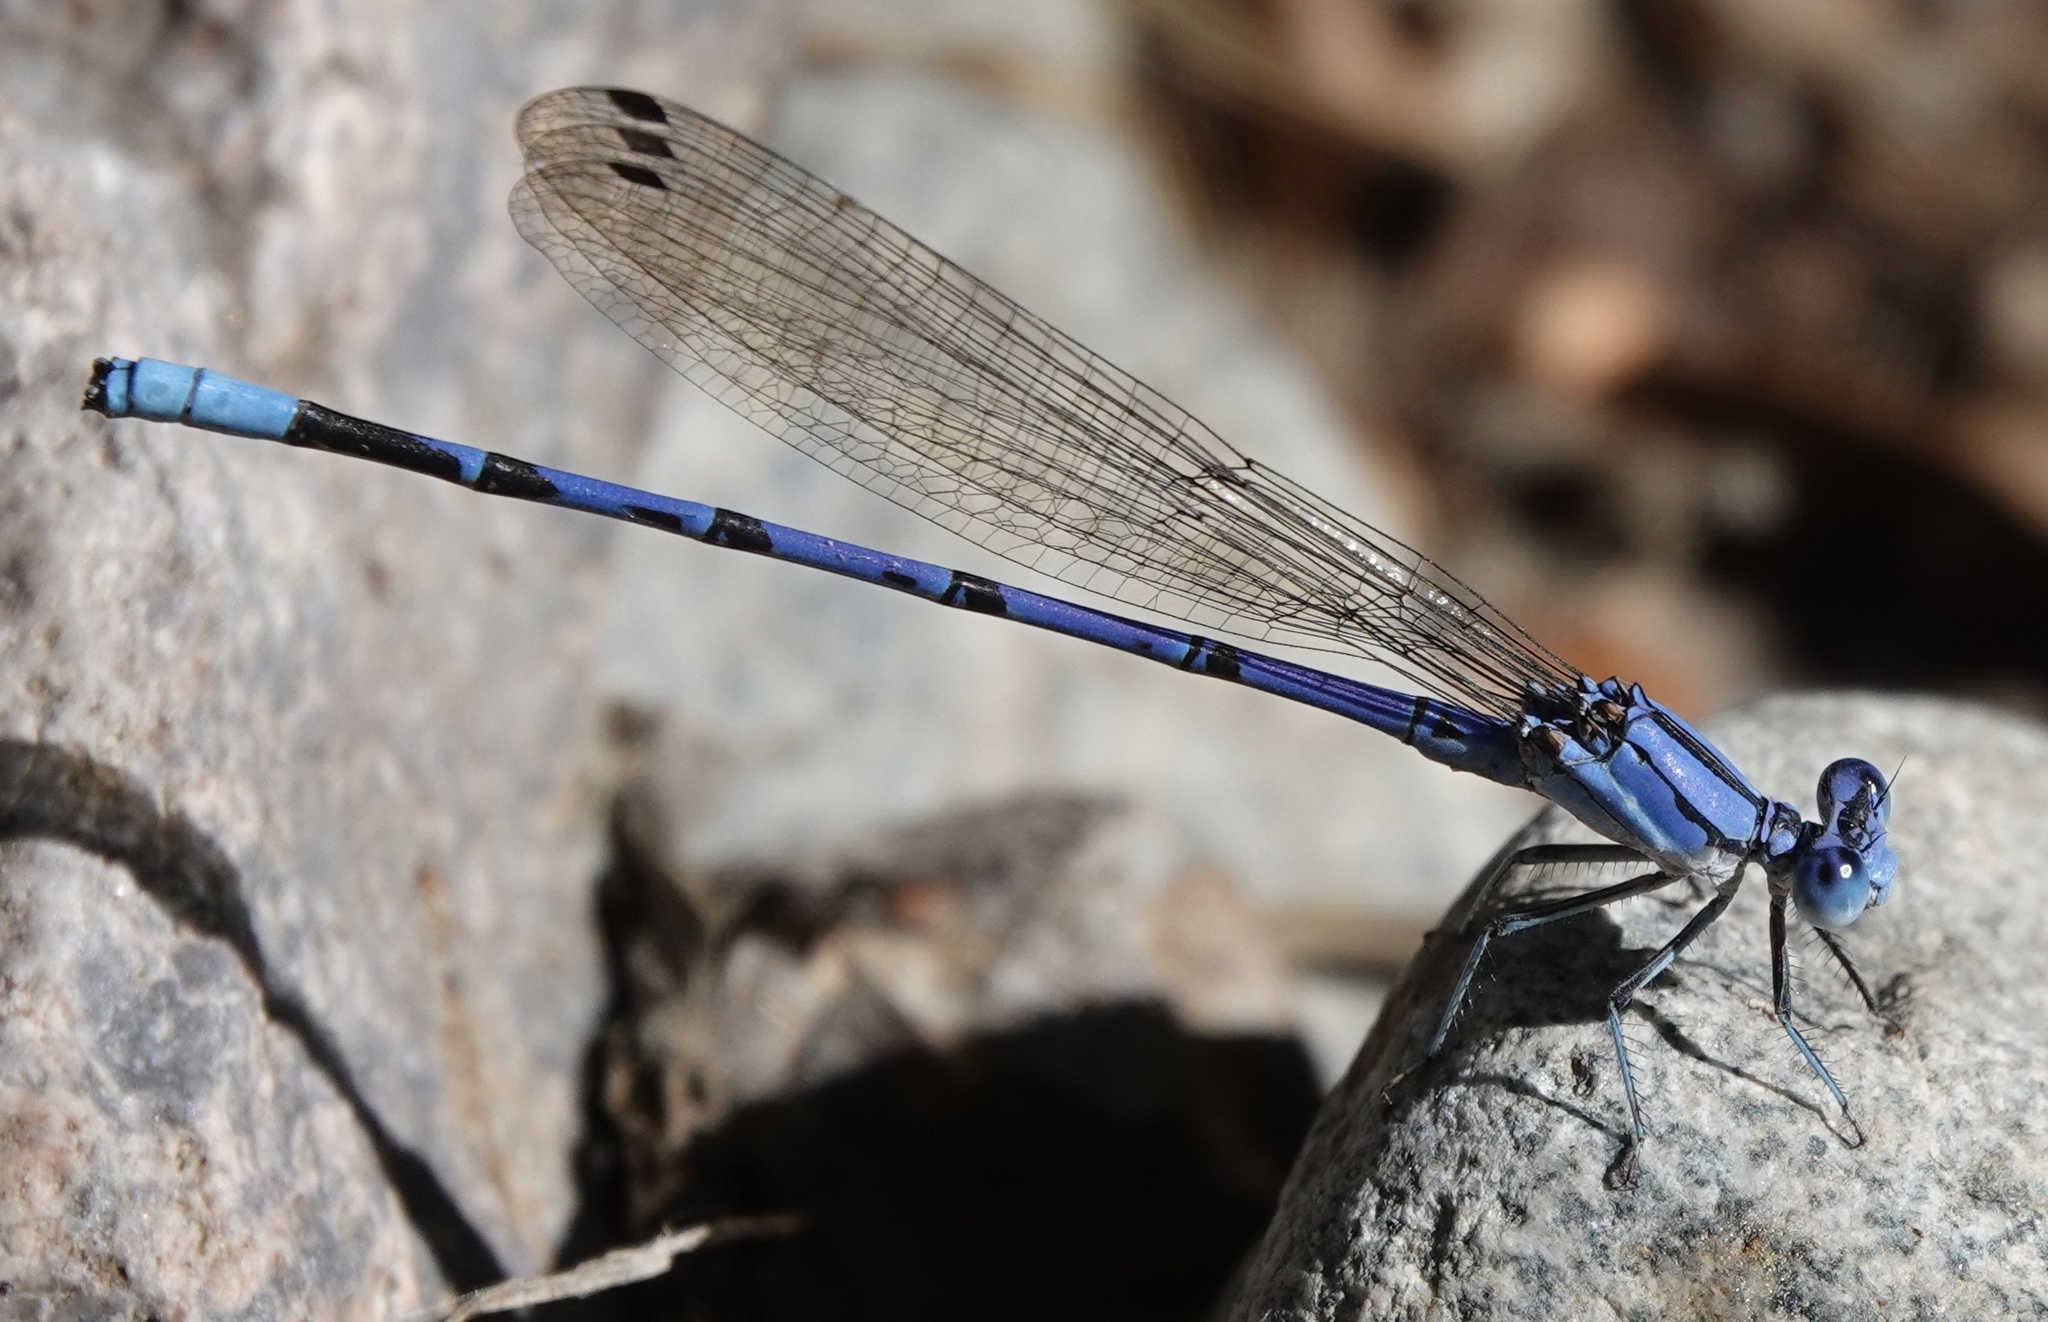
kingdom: Animalia
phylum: Arthropoda
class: Insecta
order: Odonata
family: Coenagrionidae
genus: Argia
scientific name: Argia munda
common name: Apache dancer
